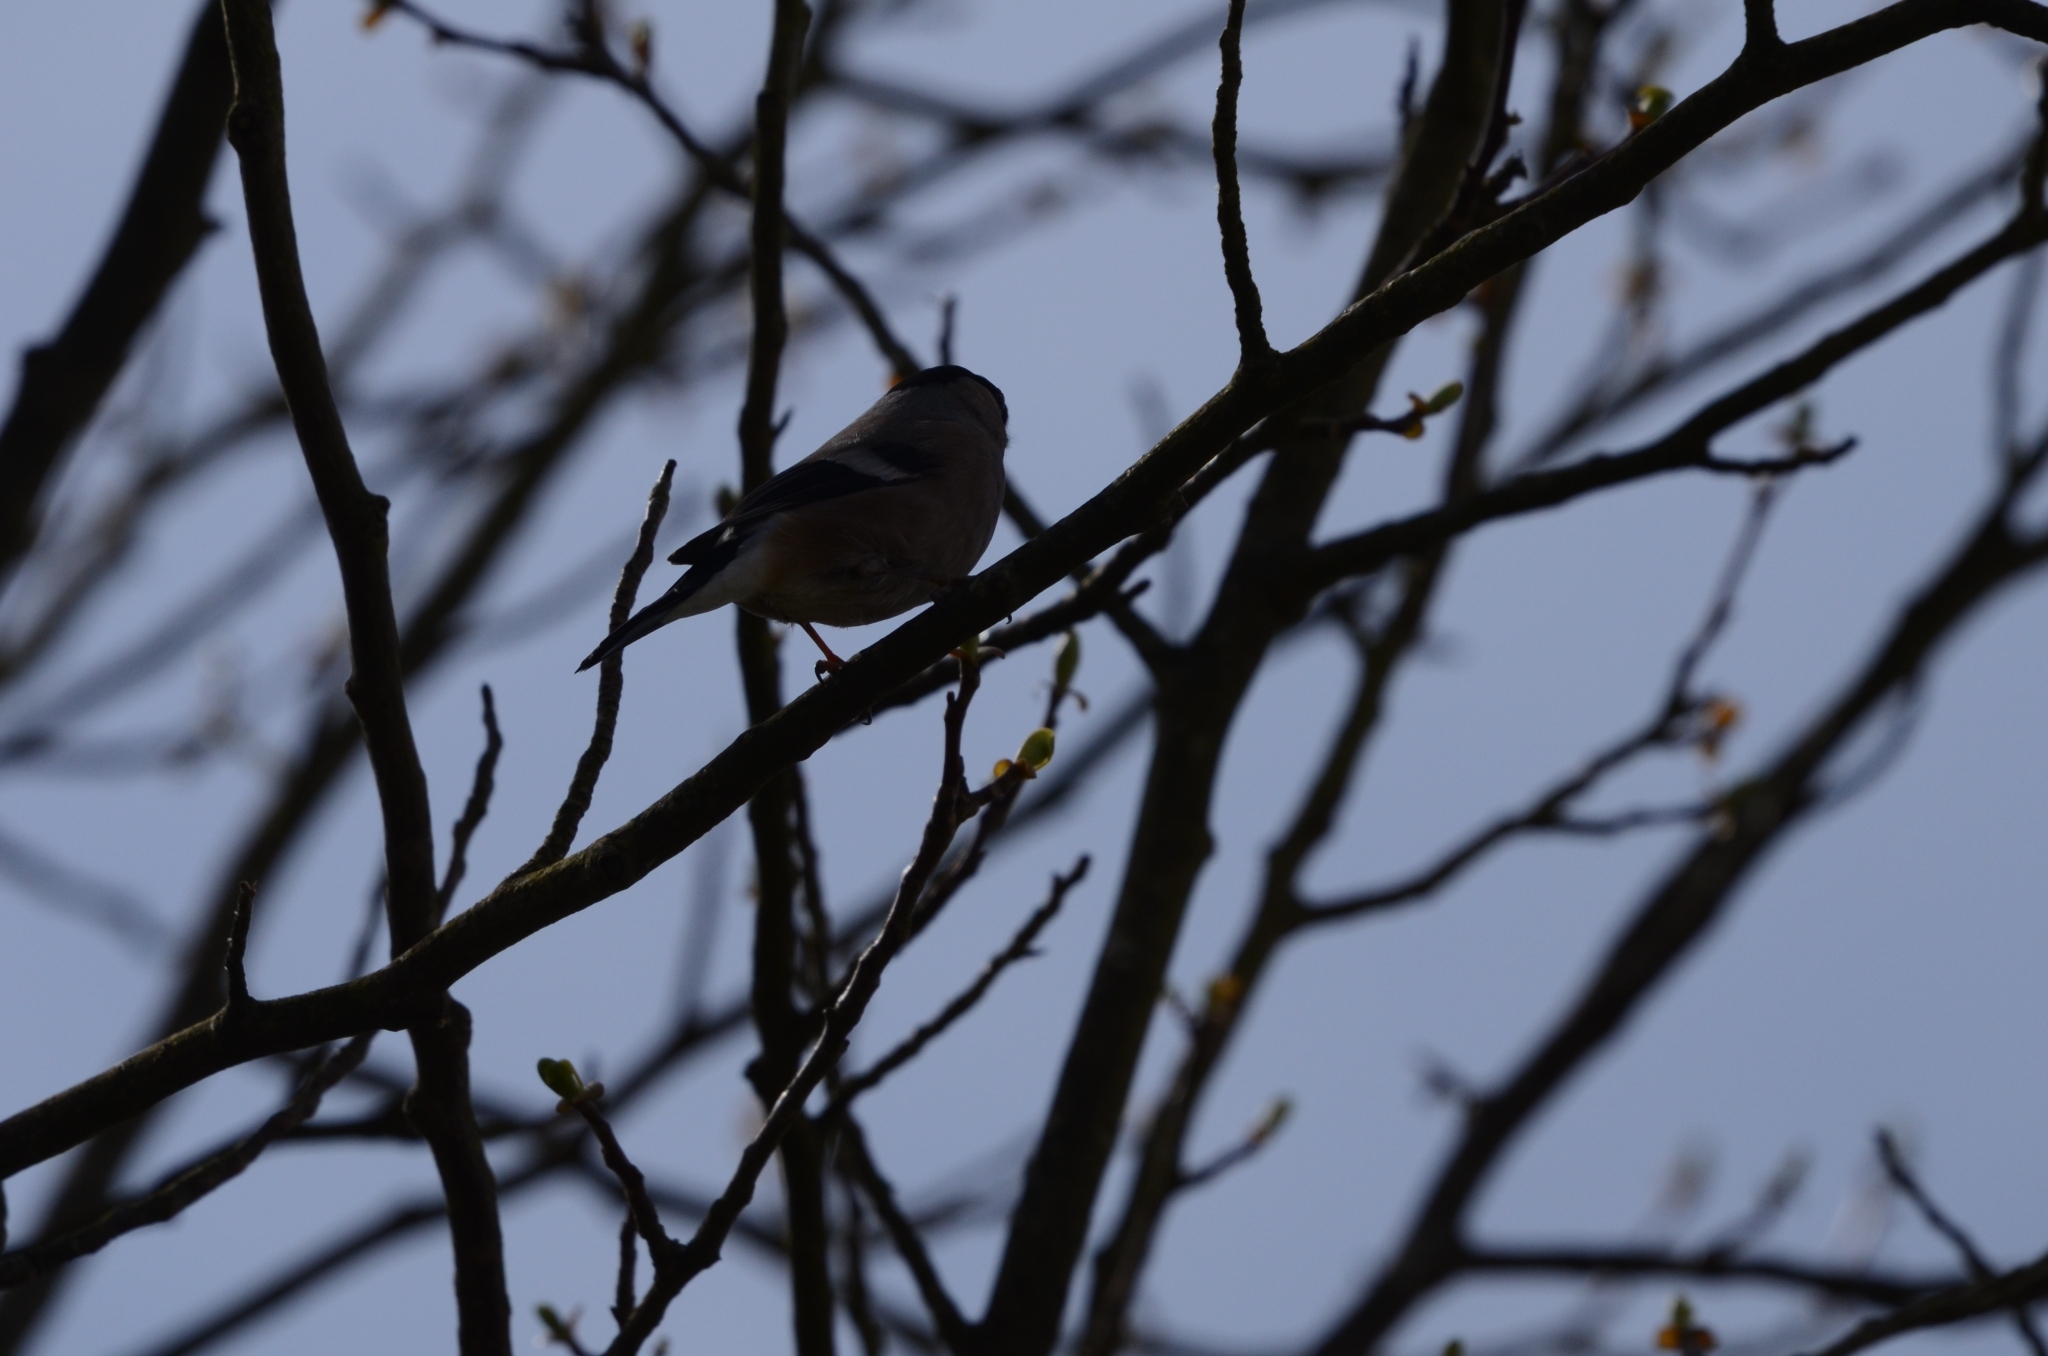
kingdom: Animalia
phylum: Chordata
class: Aves
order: Passeriformes
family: Fringillidae
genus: Pyrrhula
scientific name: Pyrrhula pyrrhula
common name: Eurasian bullfinch
